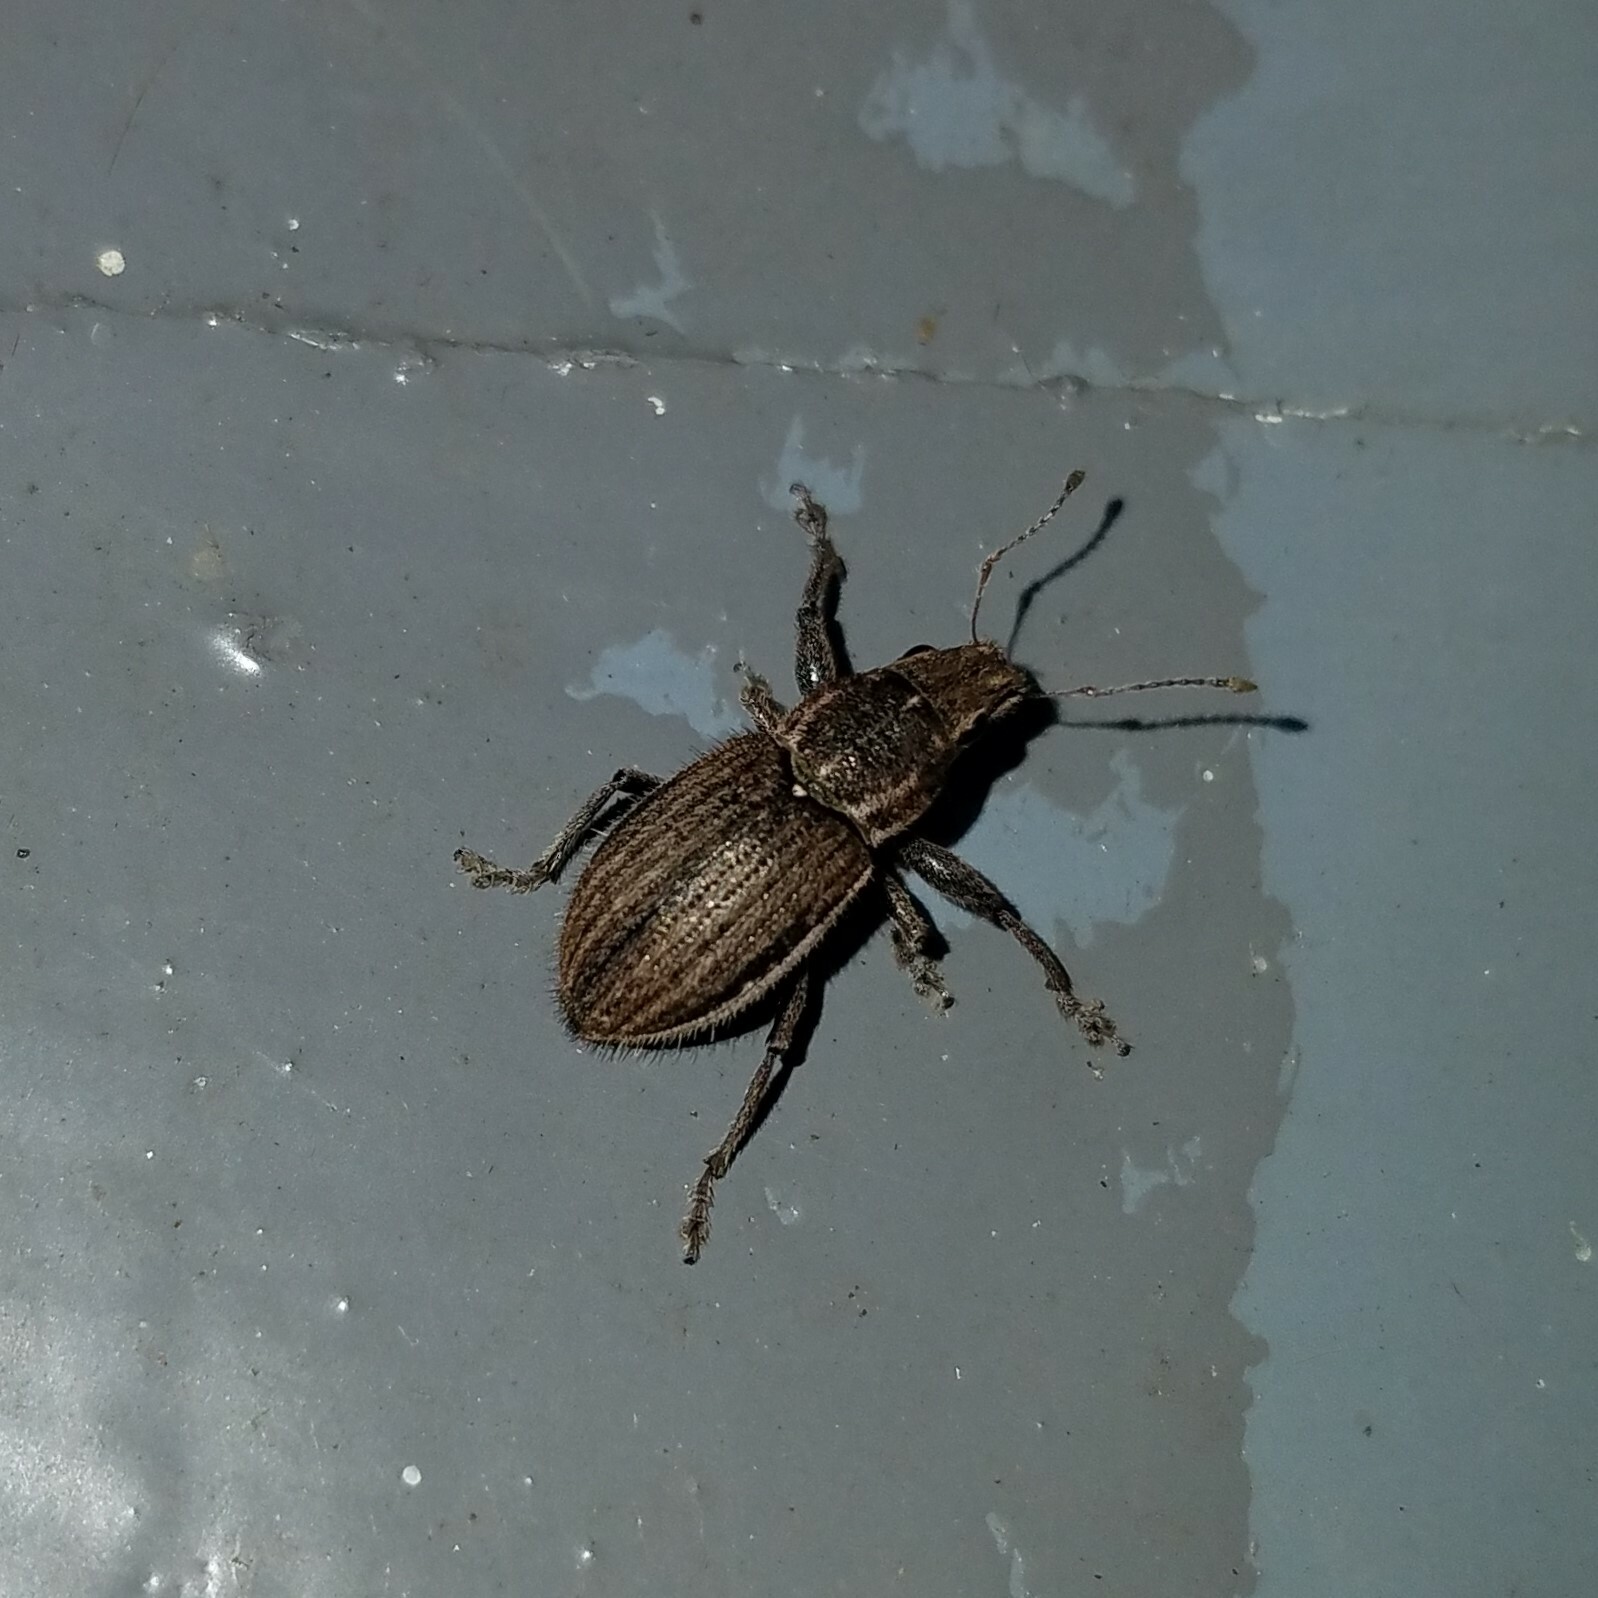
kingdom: Animalia
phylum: Arthropoda
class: Insecta
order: Coleoptera
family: Curculionidae
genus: Naupactus
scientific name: Naupactus leucoloma
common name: Whitefringed beetle
